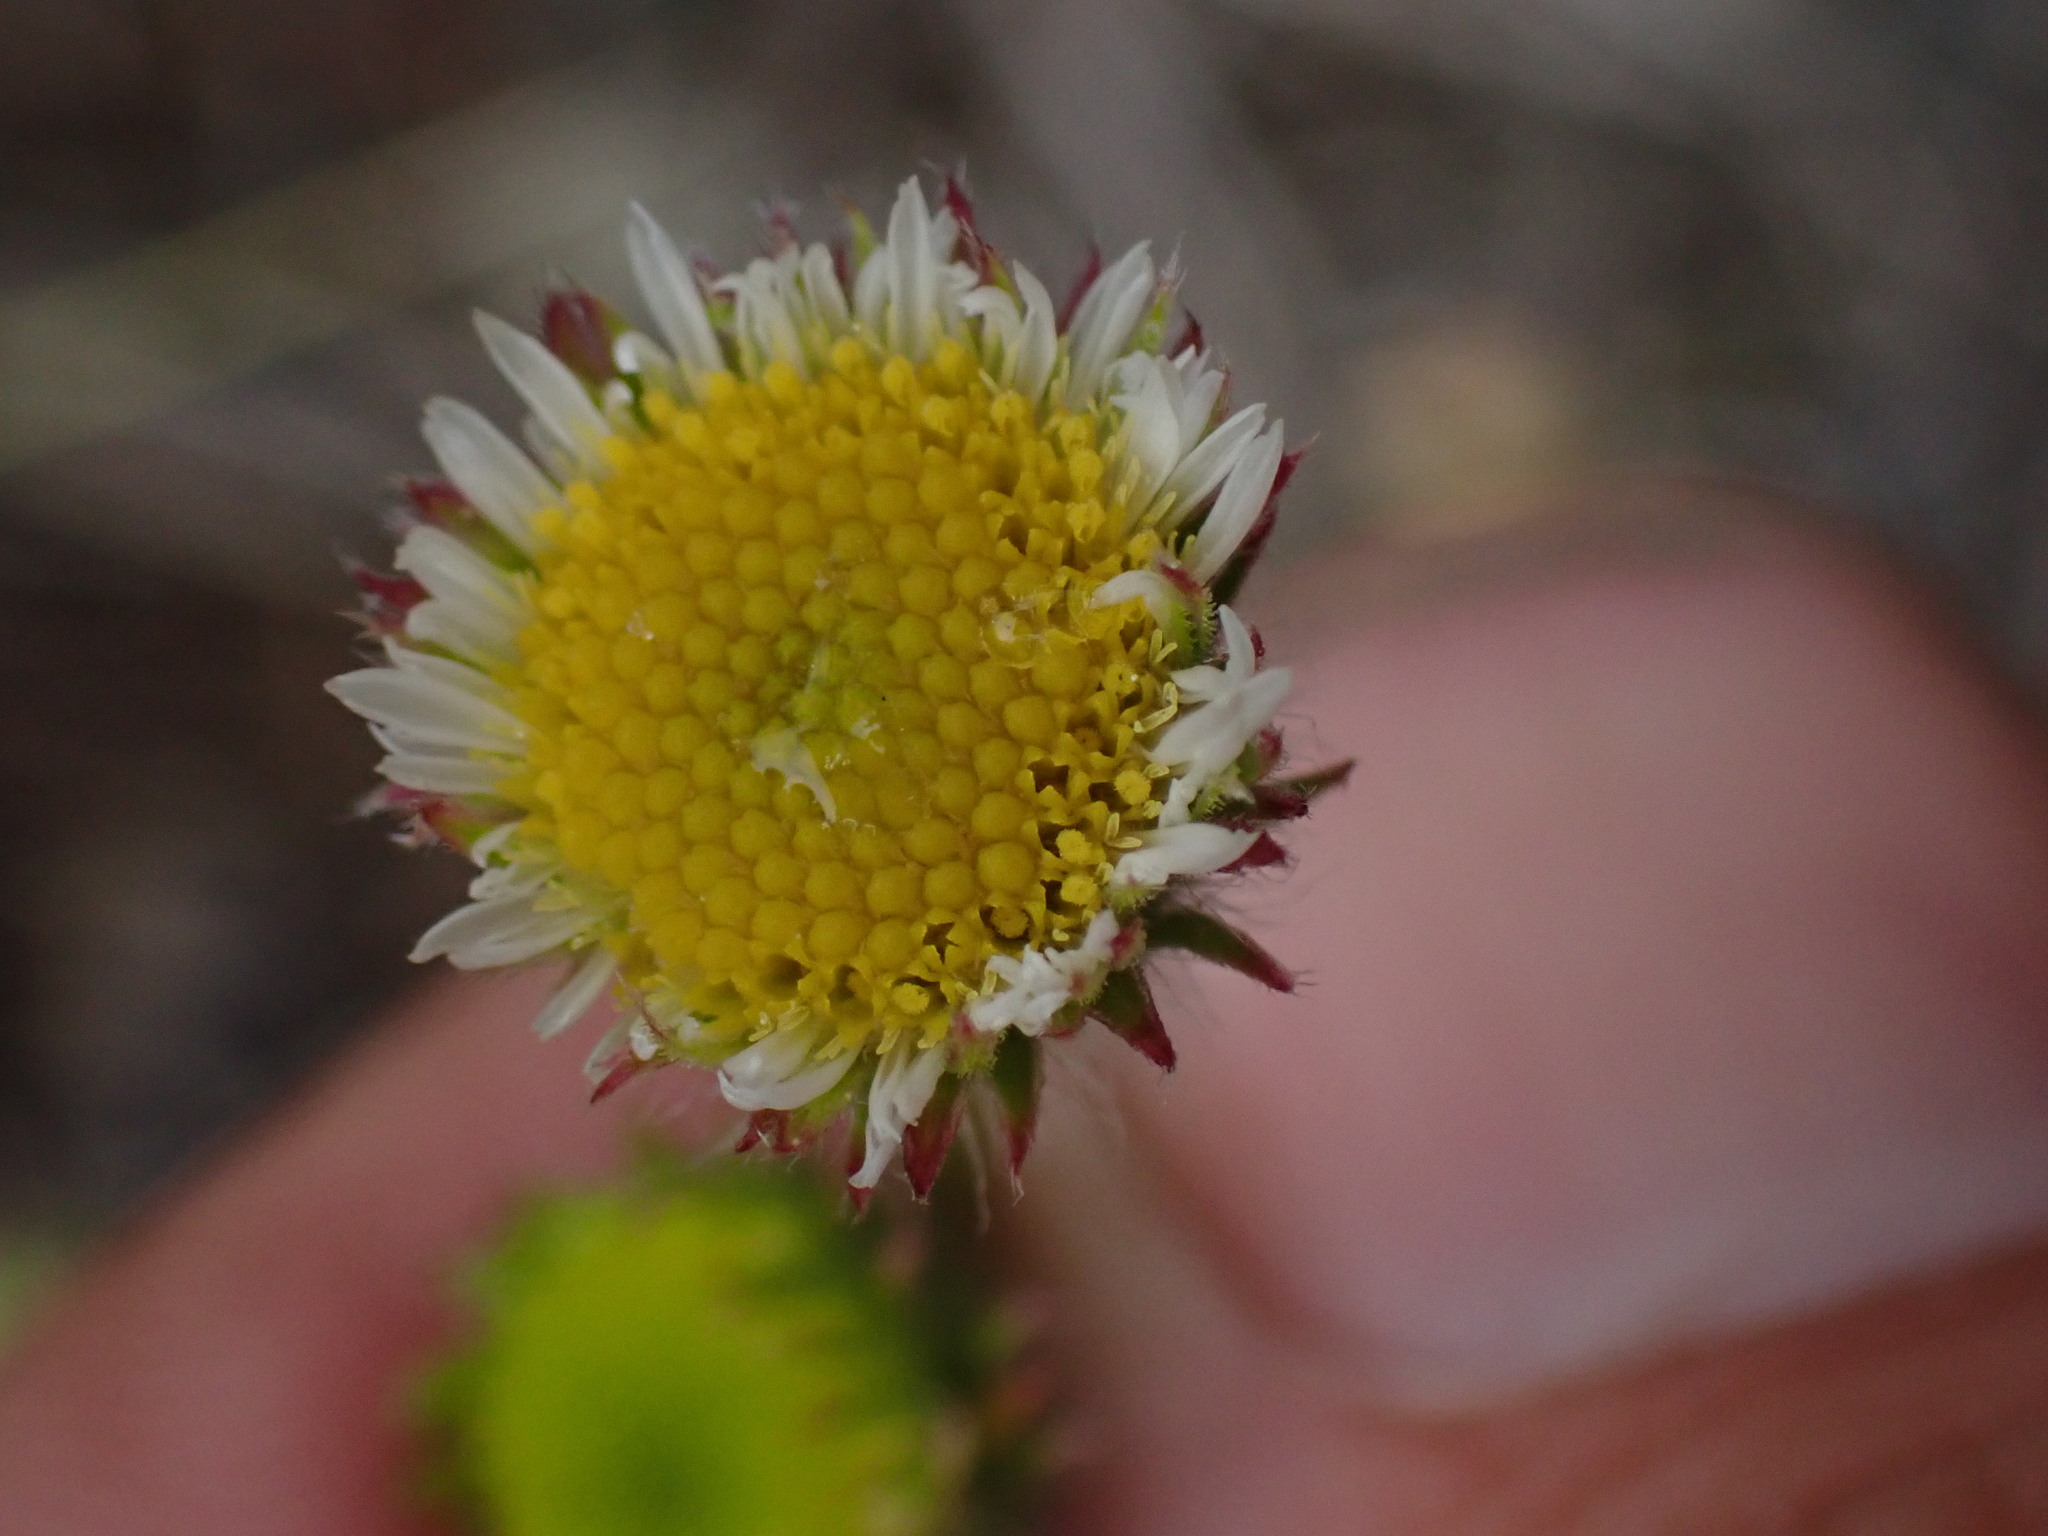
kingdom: Plantae
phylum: Tracheophyta
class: Magnoliopsida
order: Asterales
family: Asteraceae
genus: Erigeron
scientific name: Erigeron compositus
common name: Dwarf mountain fleabane
